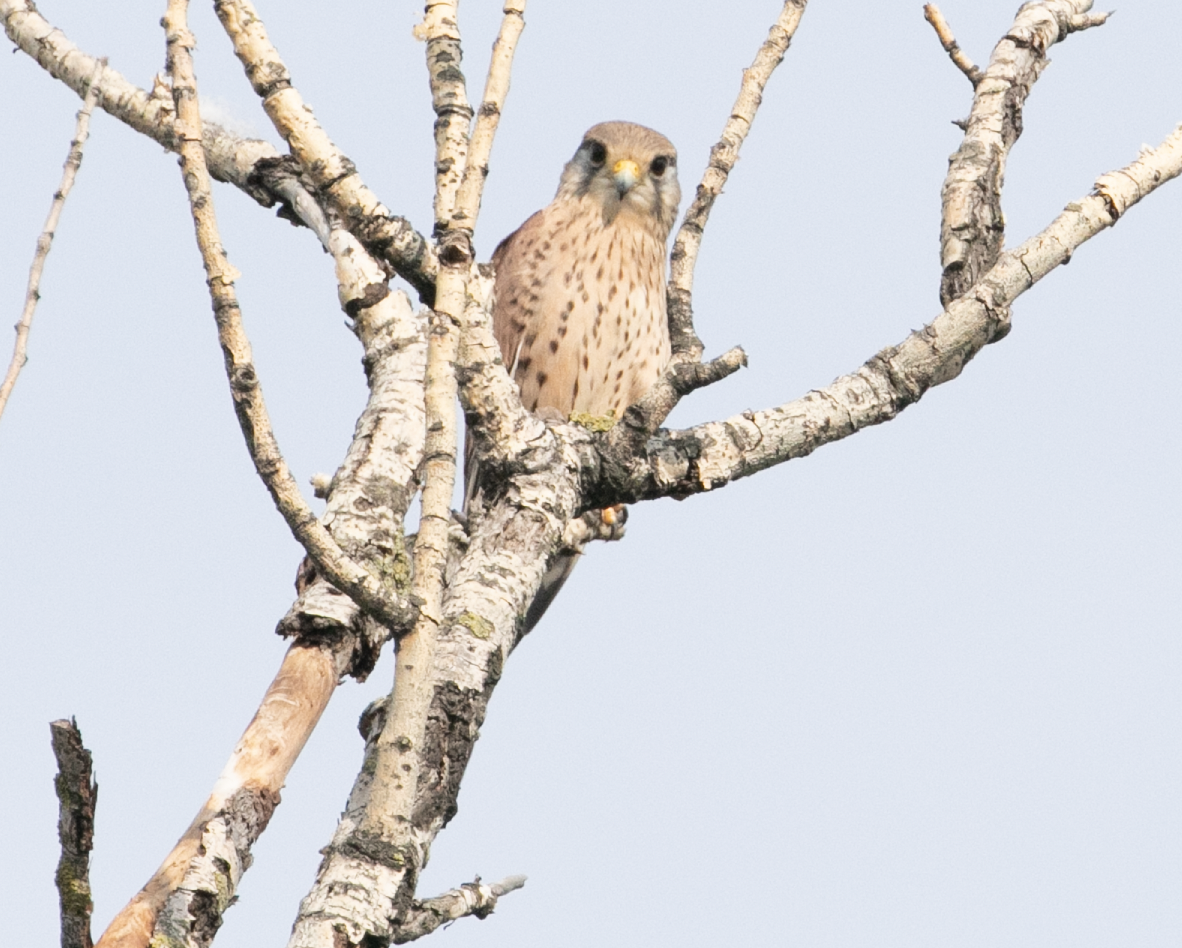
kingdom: Animalia
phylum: Chordata
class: Aves
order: Falconiformes
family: Falconidae
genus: Falco
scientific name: Falco tinnunculus
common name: Common kestrel
